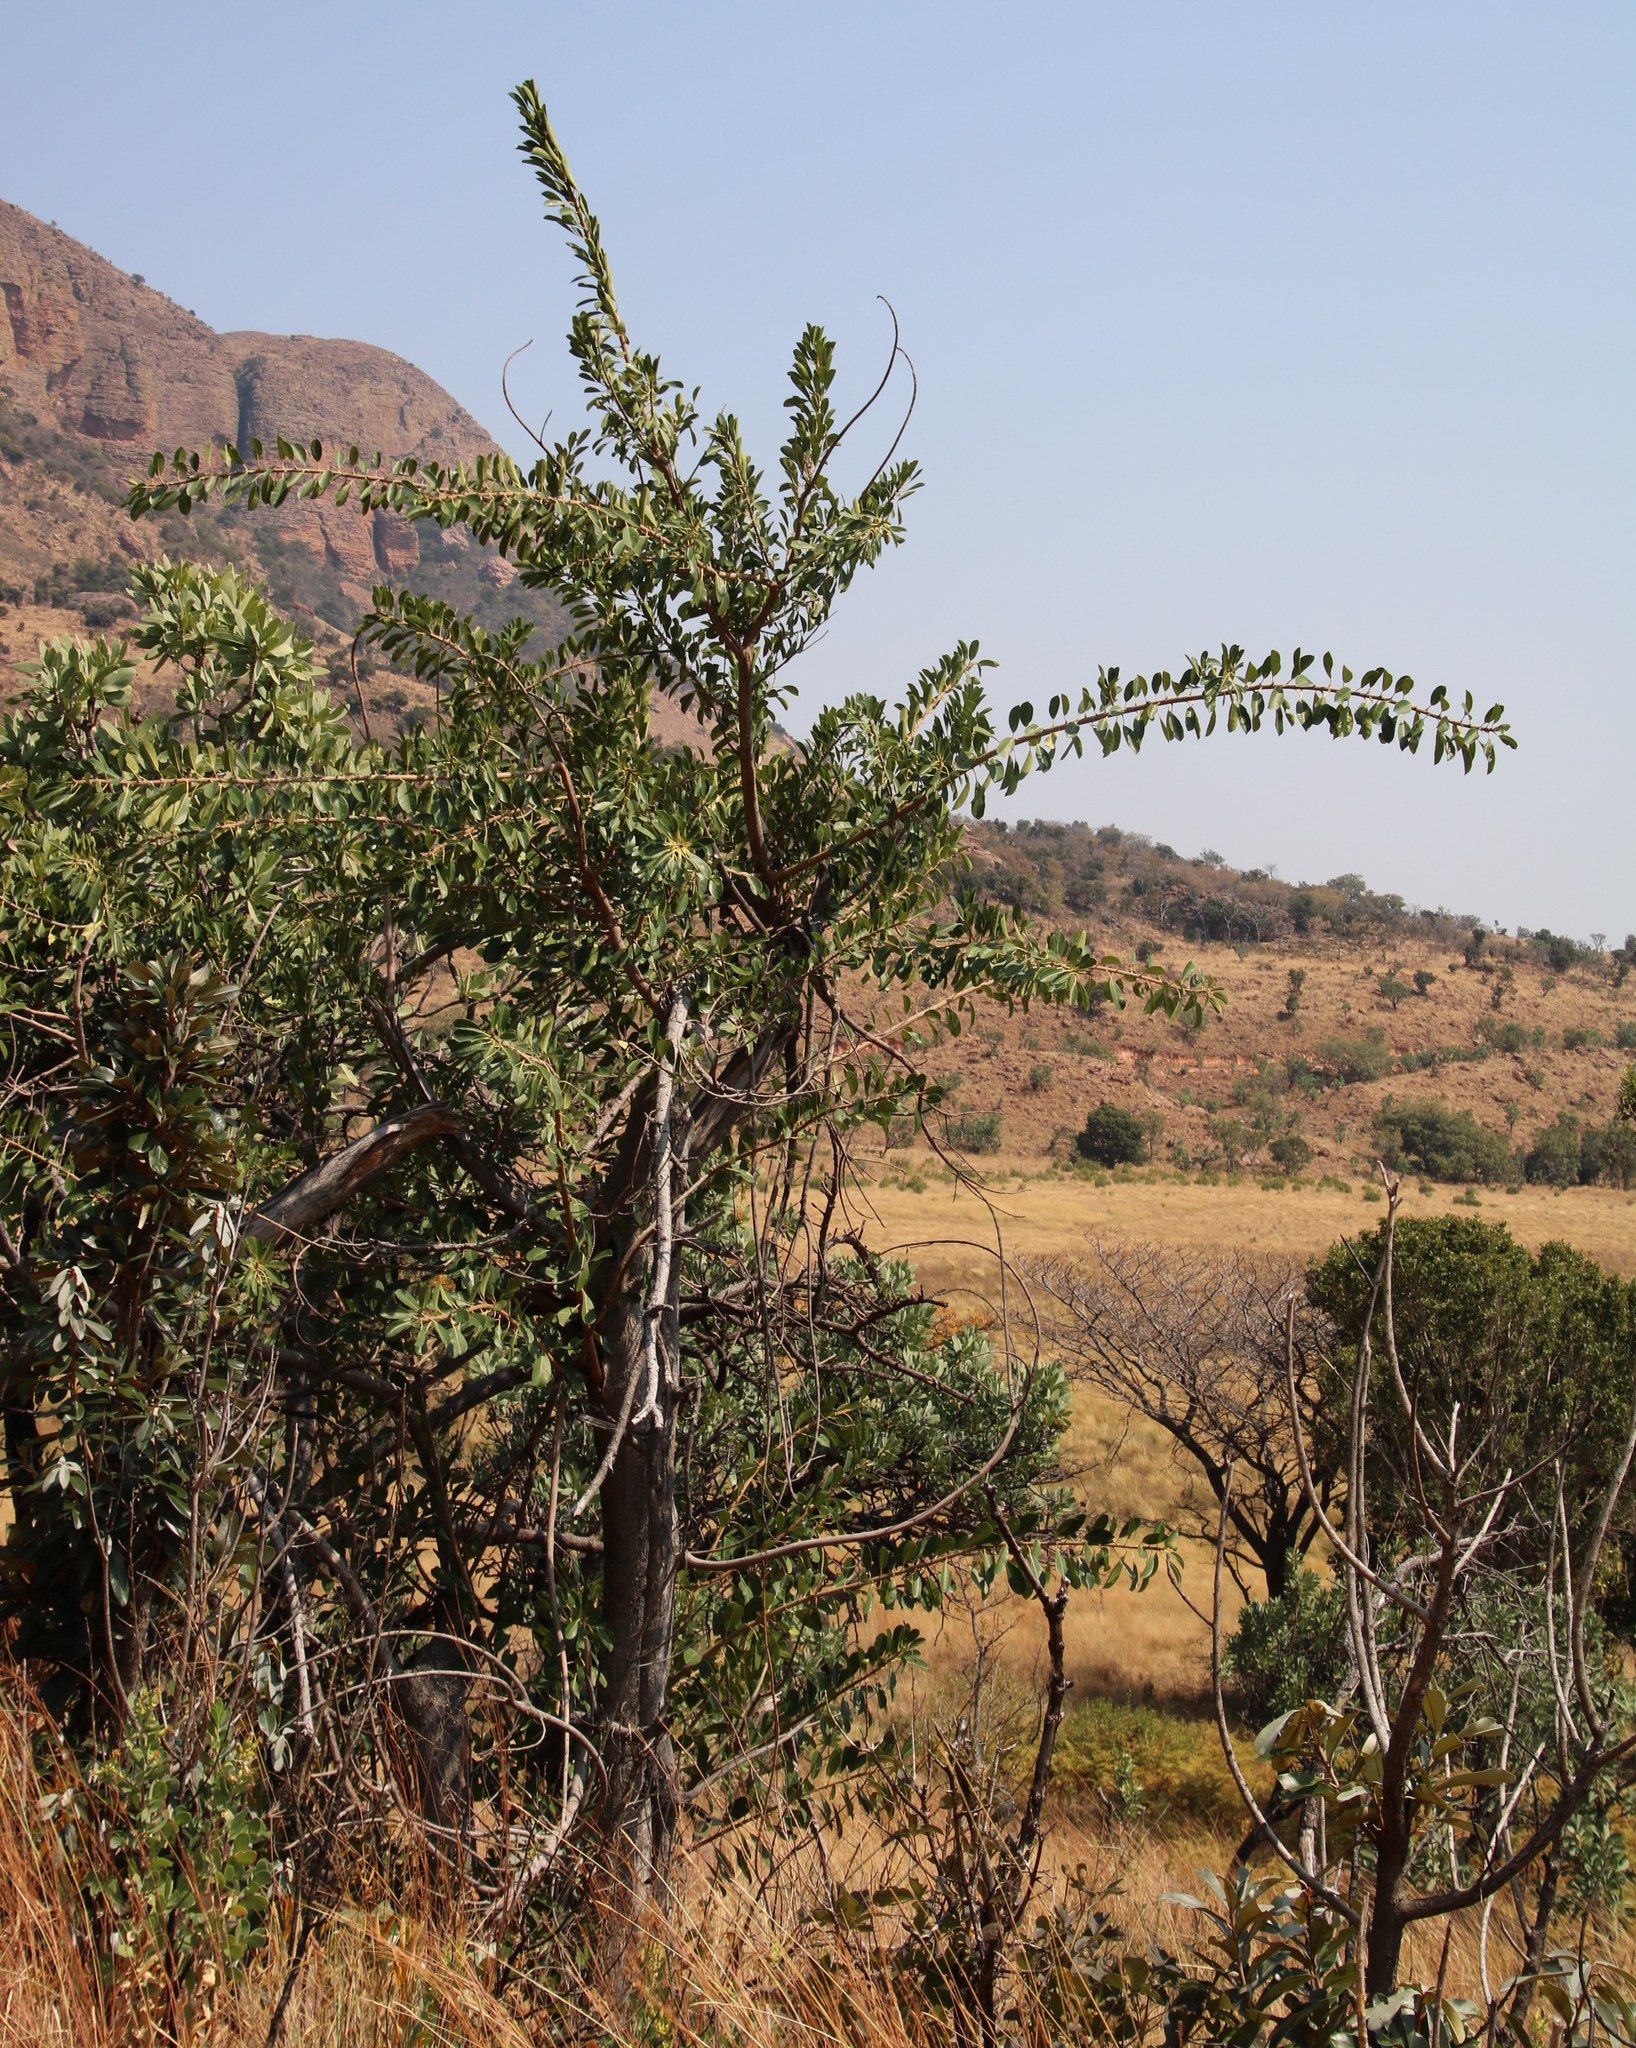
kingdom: Plantae
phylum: Tracheophyta
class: Magnoliopsida
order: Rosales
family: Moraceae
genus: Ficus
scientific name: Ficus thonningii
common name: Fig
